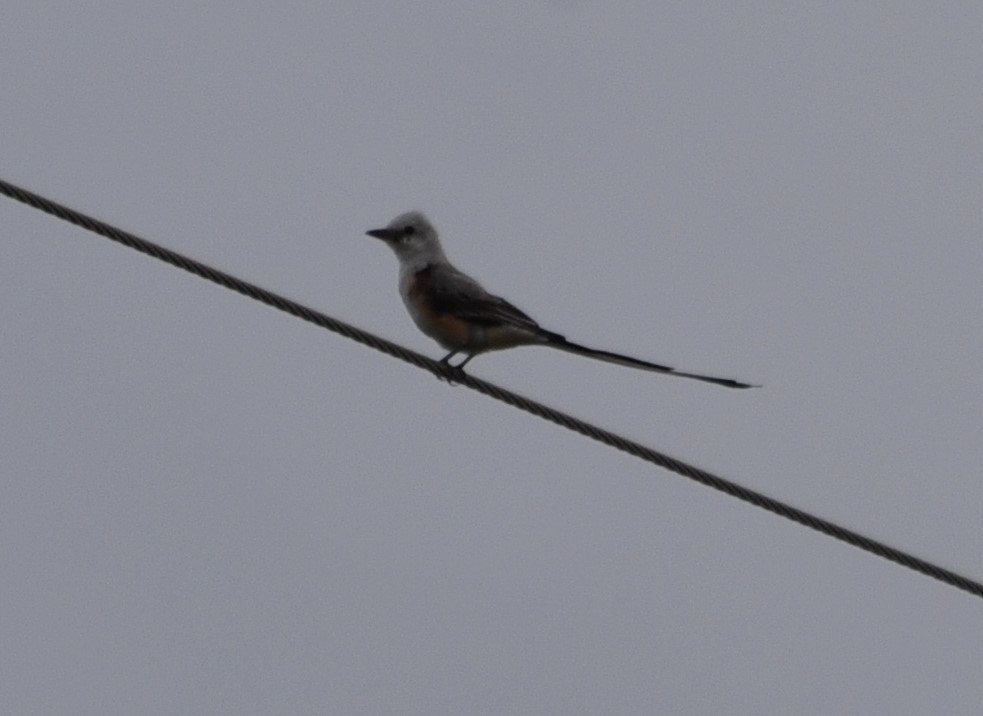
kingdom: Animalia
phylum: Chordata
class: Aves
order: Passeriformes
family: Tyrannidae
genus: Tyrannus
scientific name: Tyrannus forficatus
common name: Scissor-tailed flycatcher
